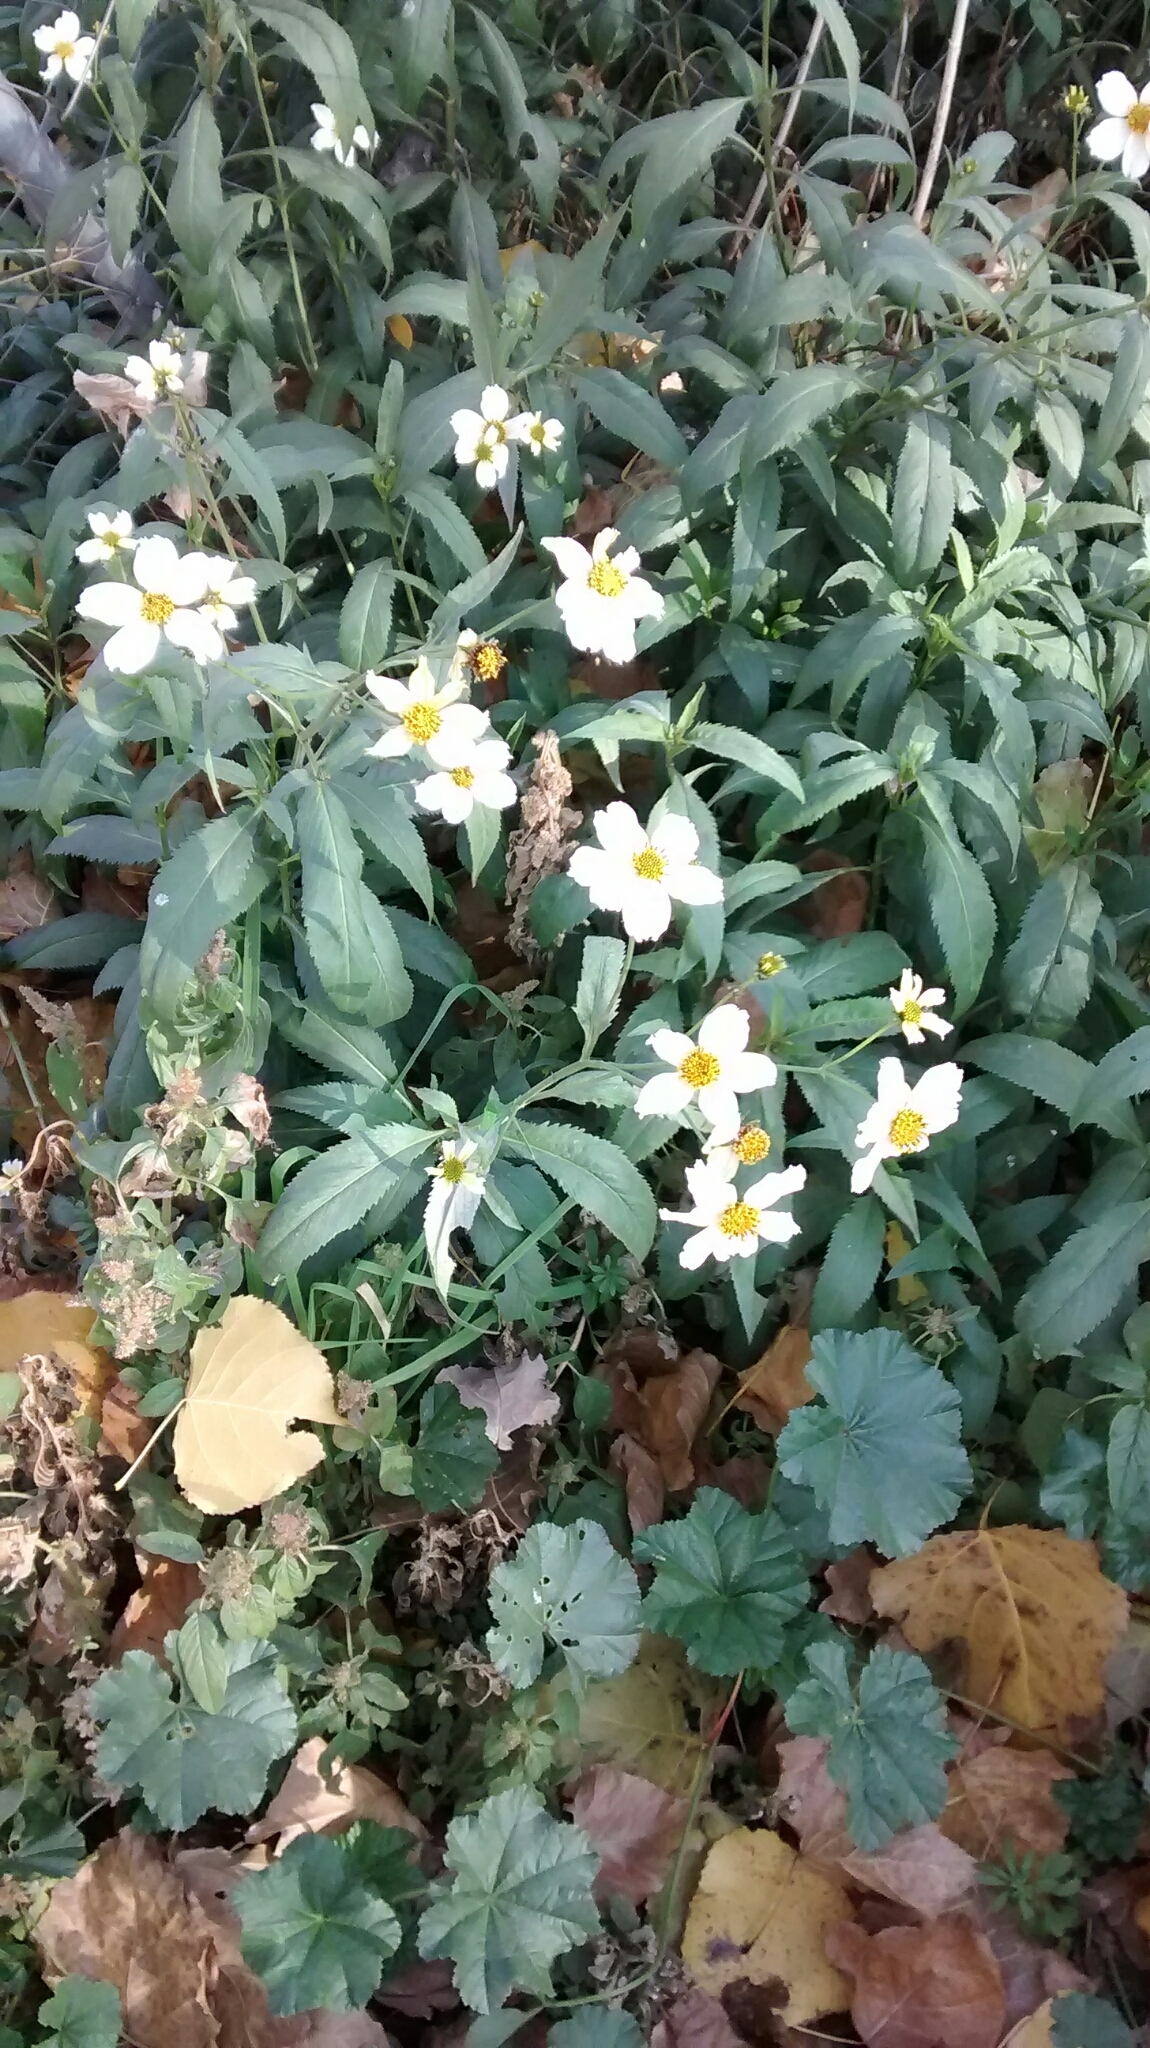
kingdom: Plantae
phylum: Tracheophyta
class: Magnoliopsida
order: Asterales
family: Asteraceae
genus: Bidens
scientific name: Bidens aurea
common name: Arizona beggar-ticks
